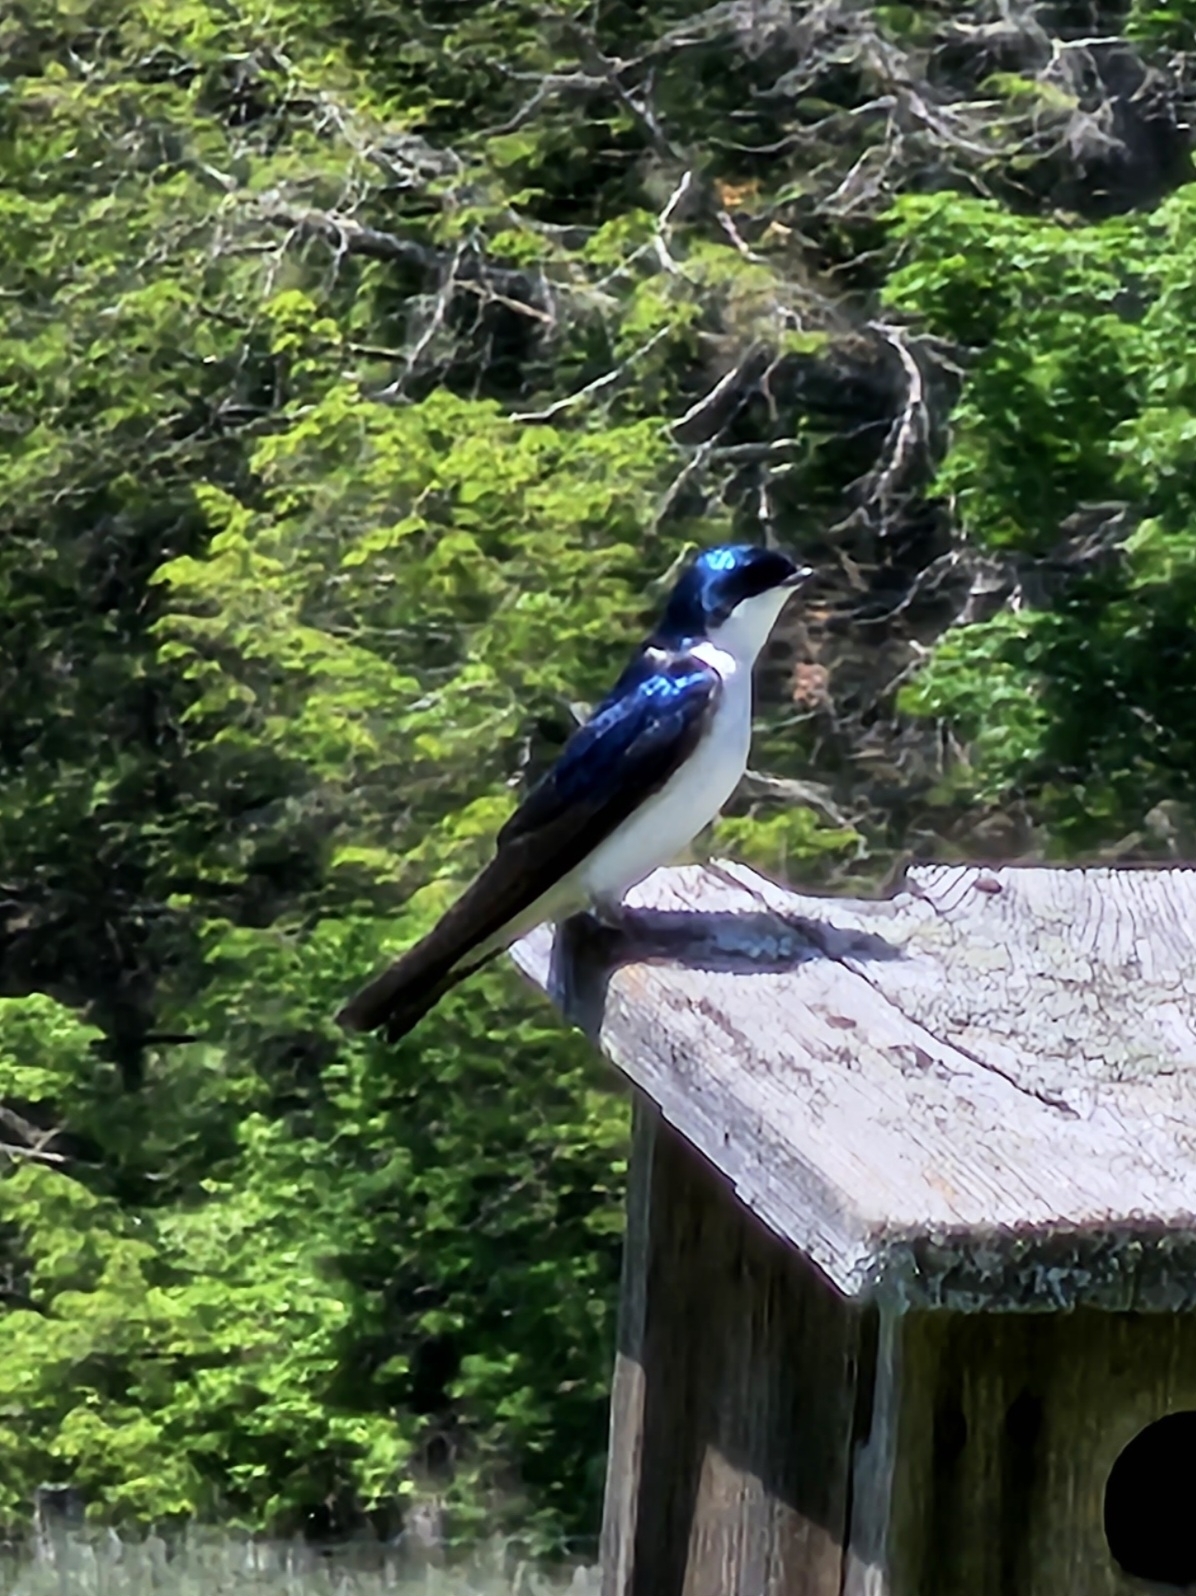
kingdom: Animalia
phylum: Chordata
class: Aves
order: Passeriformes
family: Hirundinidae
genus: Tachycineta
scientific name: Tachycineta bicolor
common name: Tree swallow
